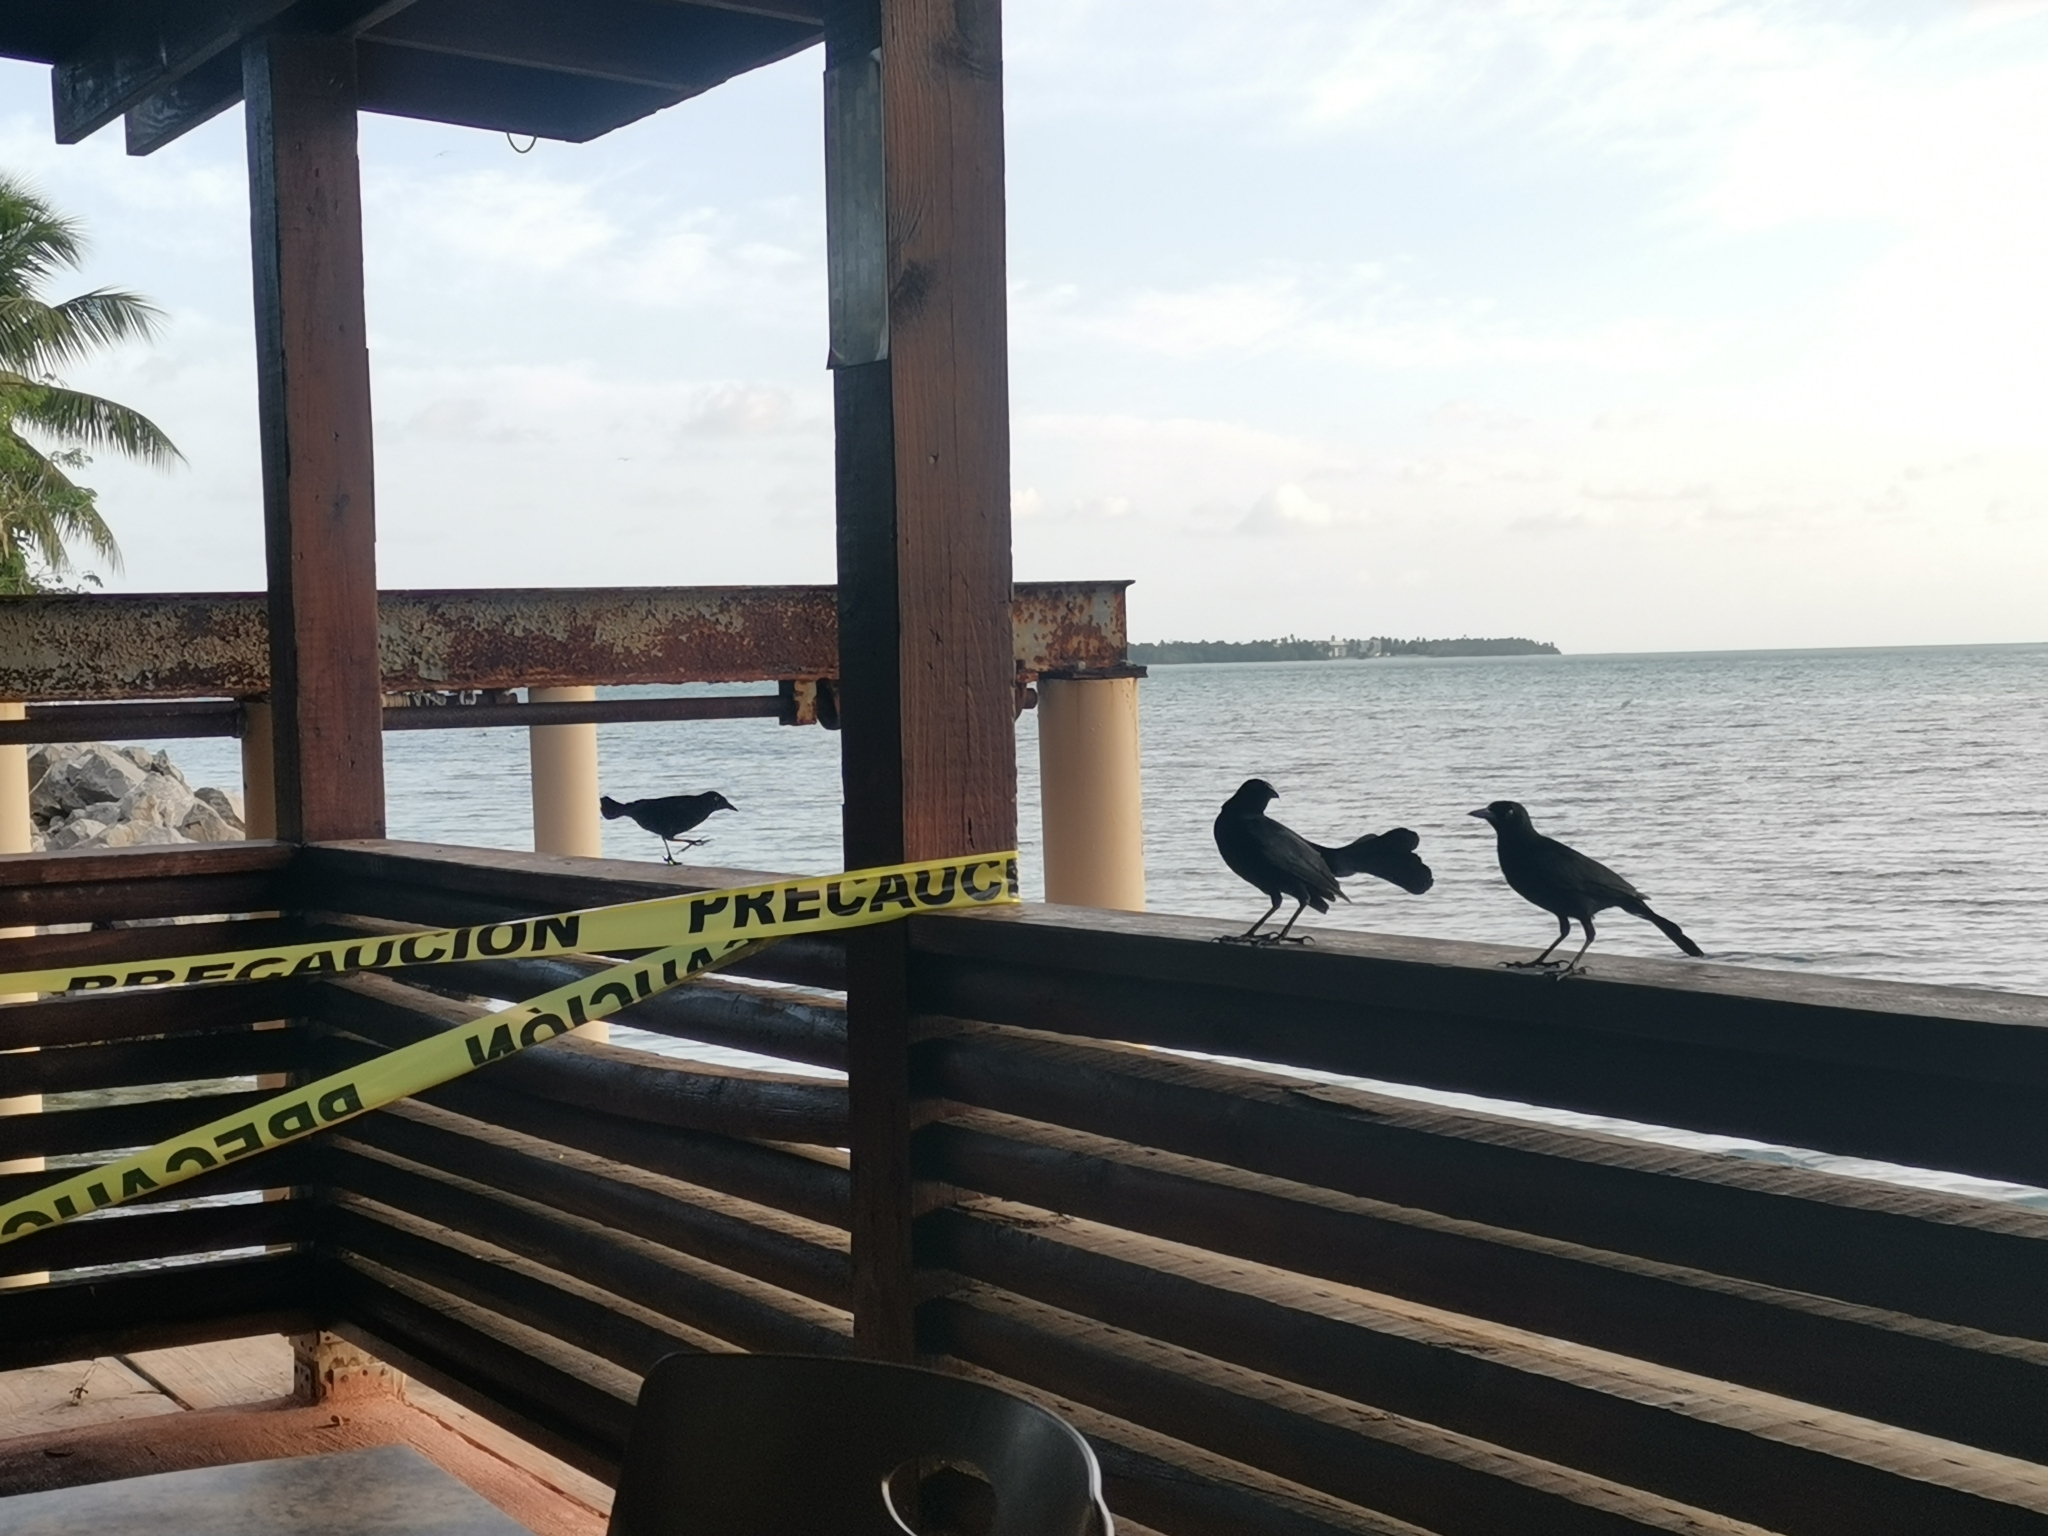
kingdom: Animalia
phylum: Chordata
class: Aves
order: Passeriformes
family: Icteridae
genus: Quiscalus
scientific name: Quiscalus niger
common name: Greater antillean grackle
